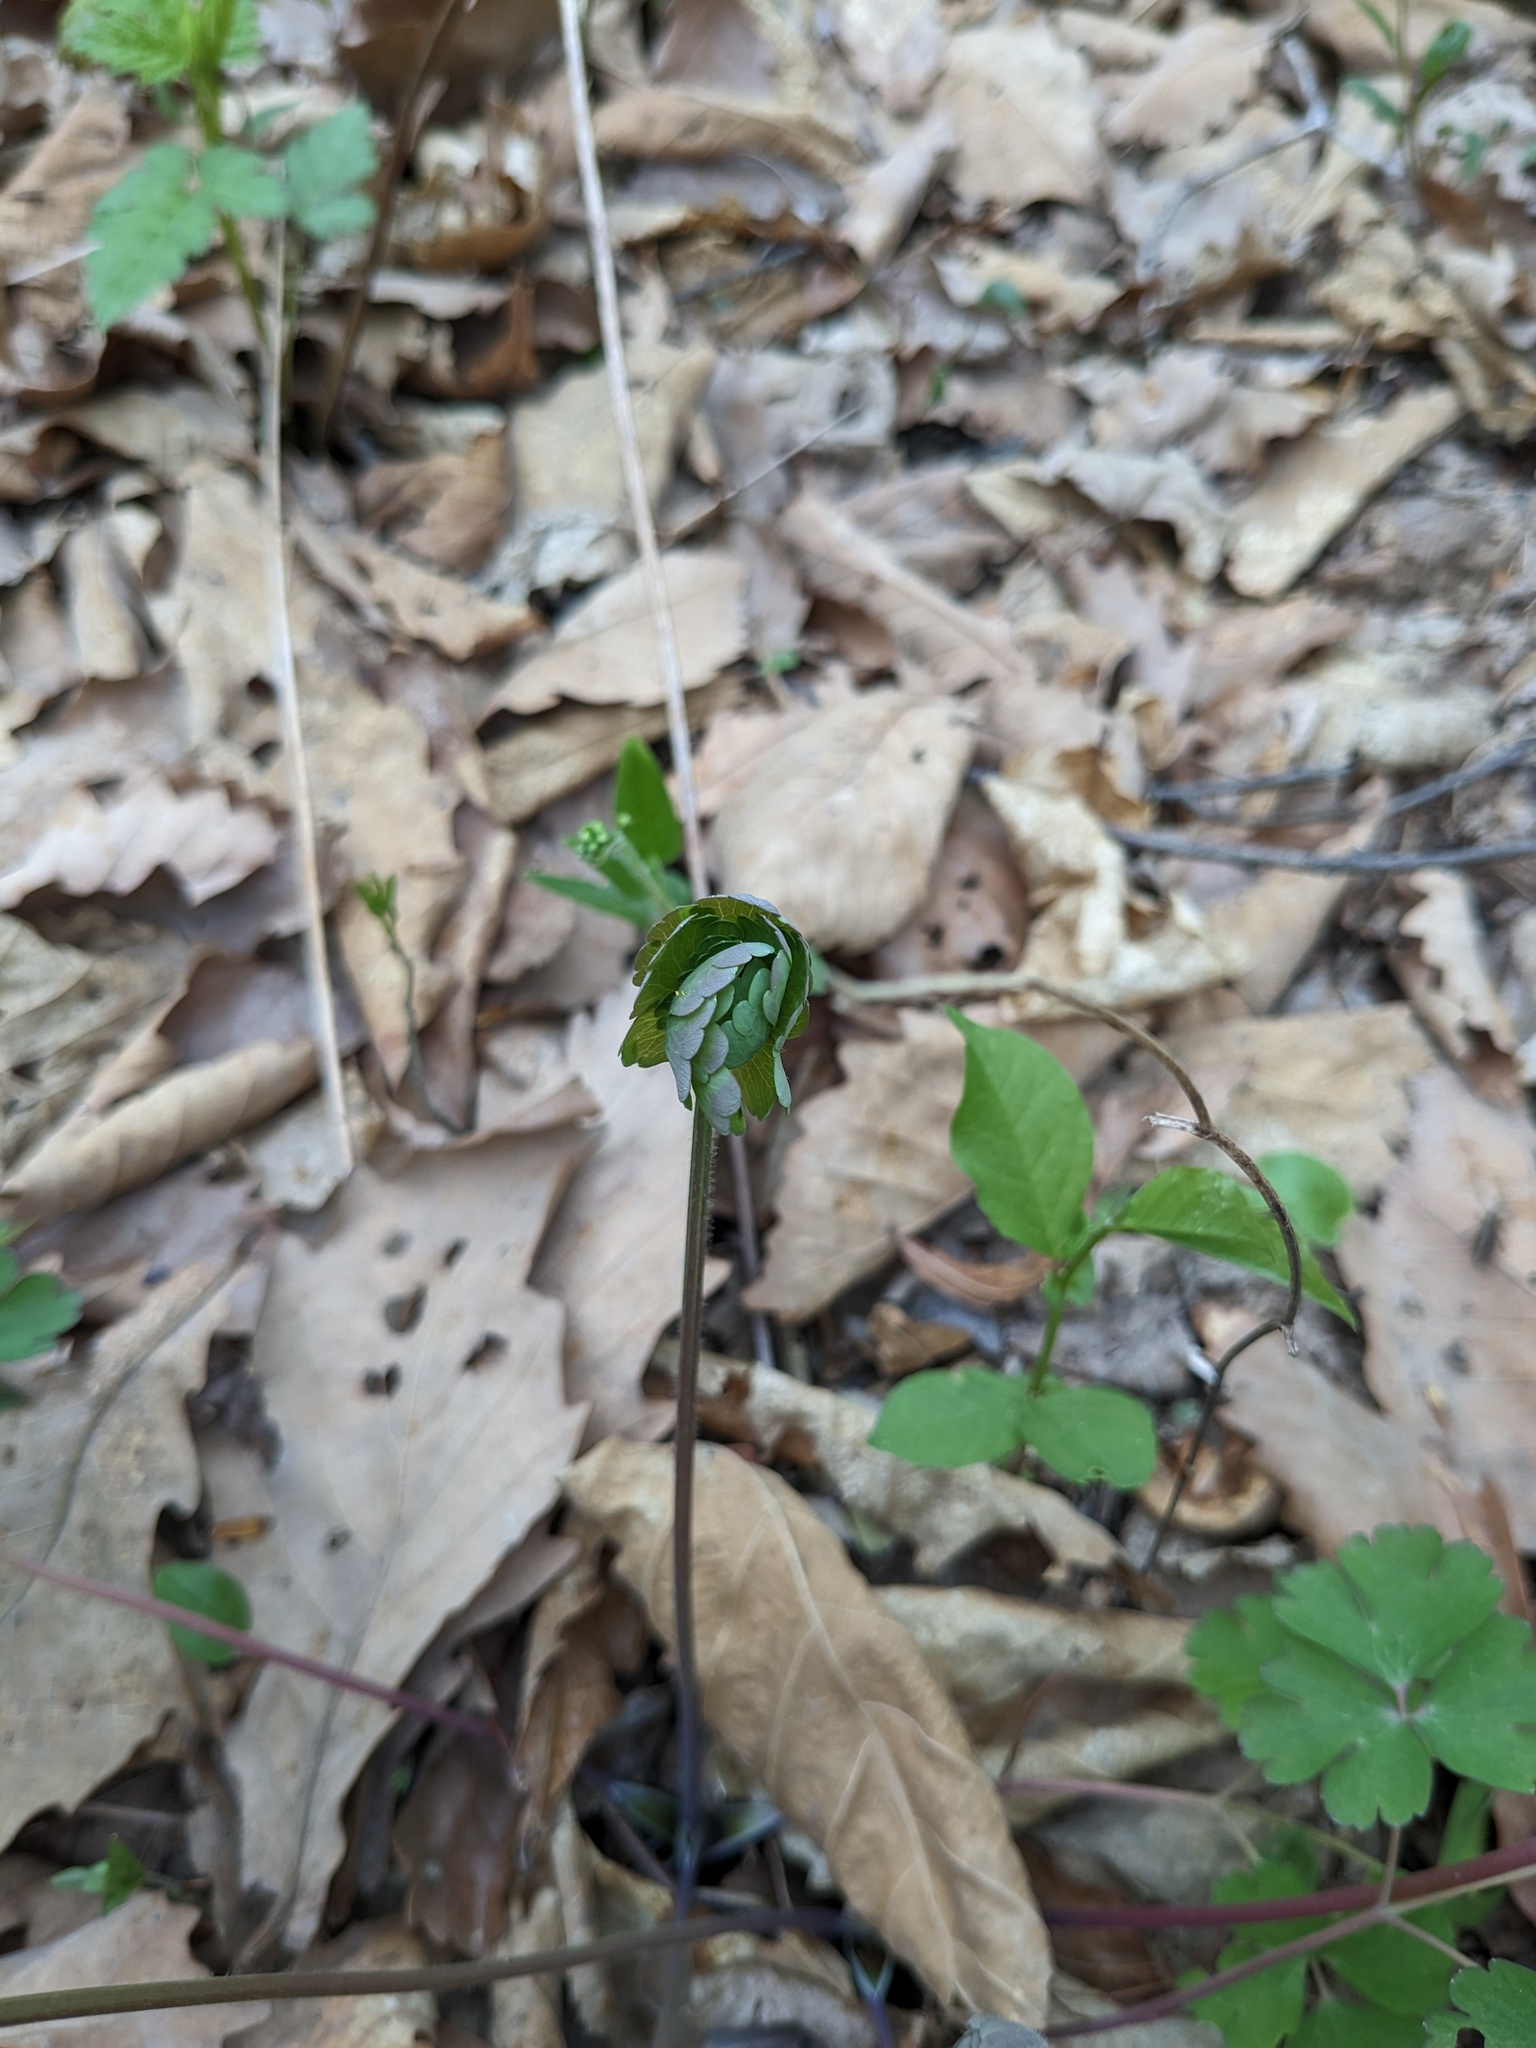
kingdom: Plantae
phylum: Tracheophyta
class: Magnoliopsida
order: Ranunculales
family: Ranunculaceae
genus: Aquilegia
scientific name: Aquilegia oxysepala
